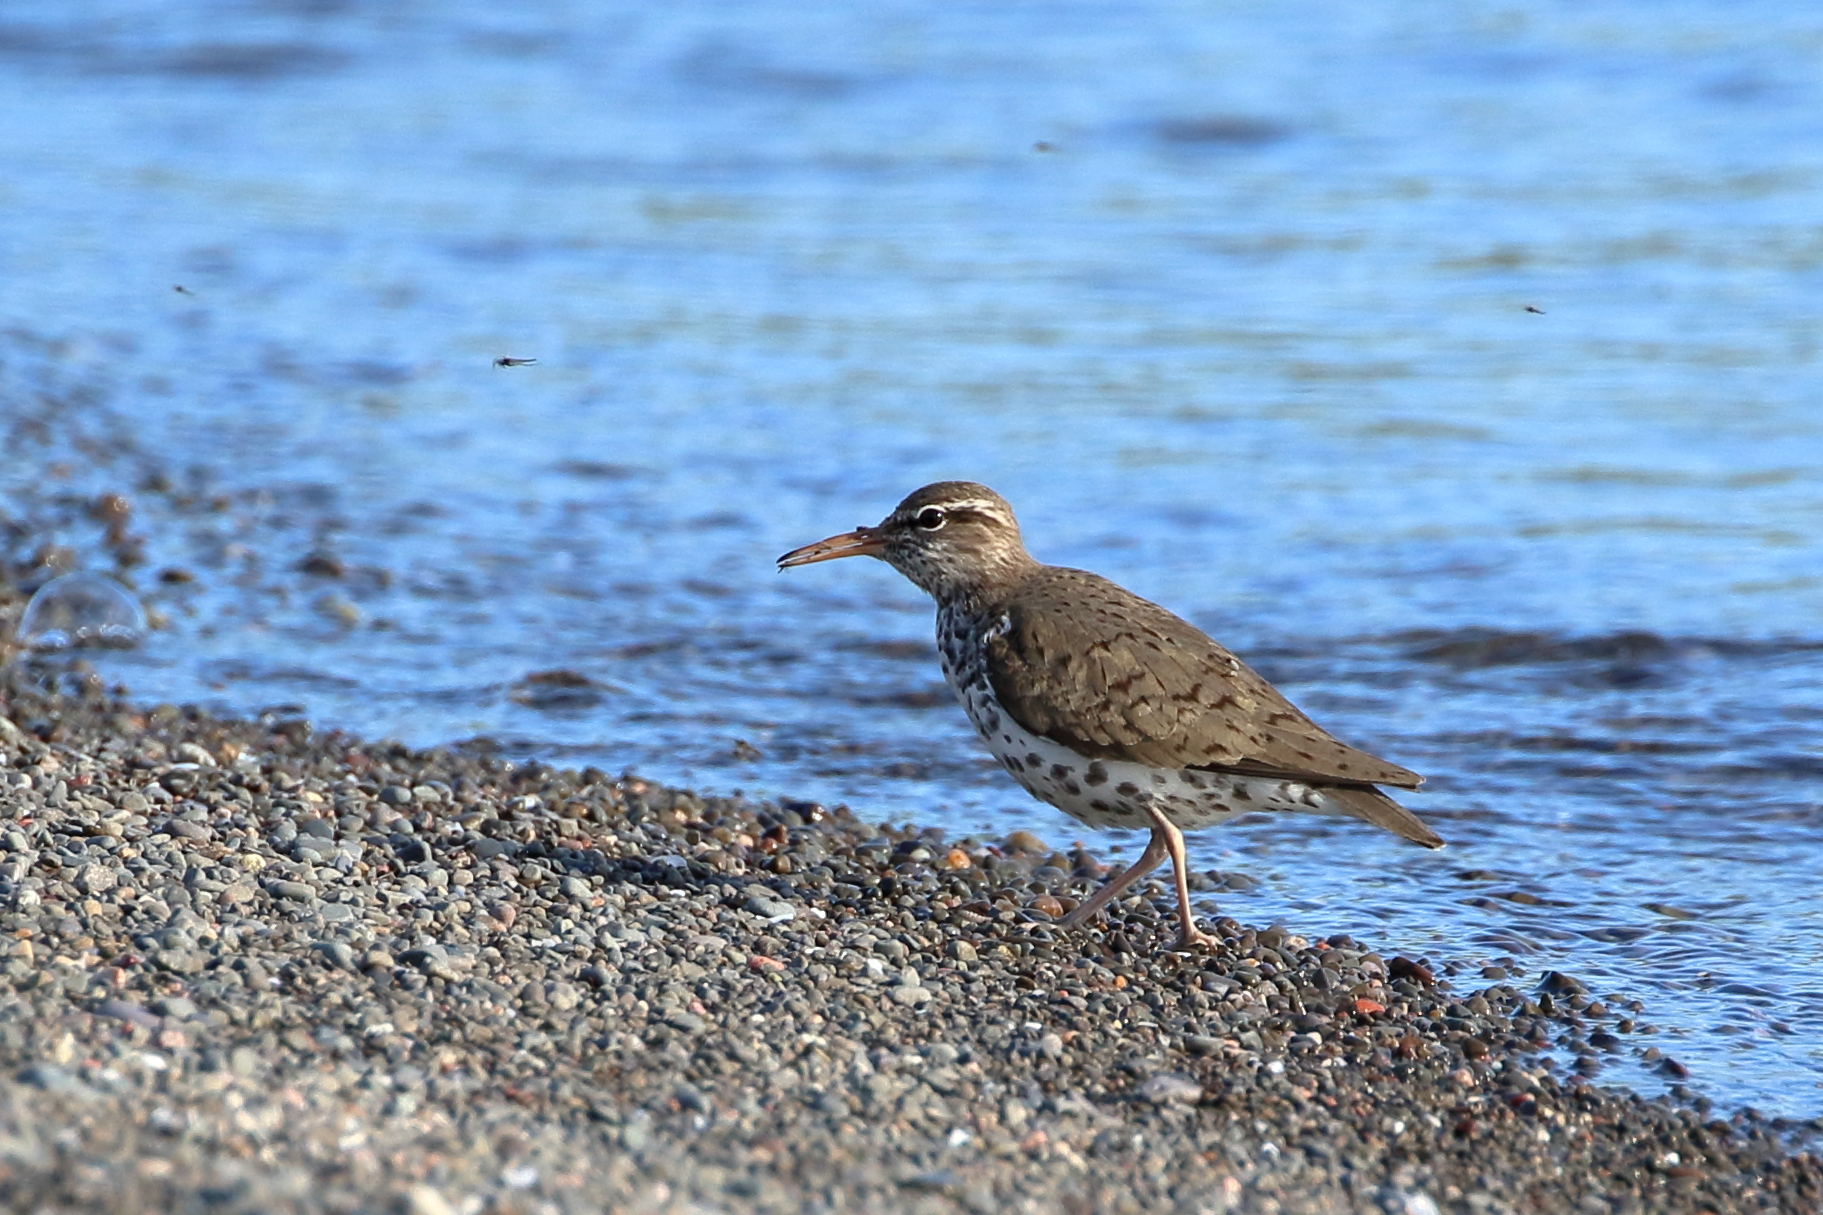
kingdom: Animalia
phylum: Chordata
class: Aves
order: Charadriiformes
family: Scolopacidae
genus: Actitis
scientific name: Actitis macularius
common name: Spotted sandpiper
